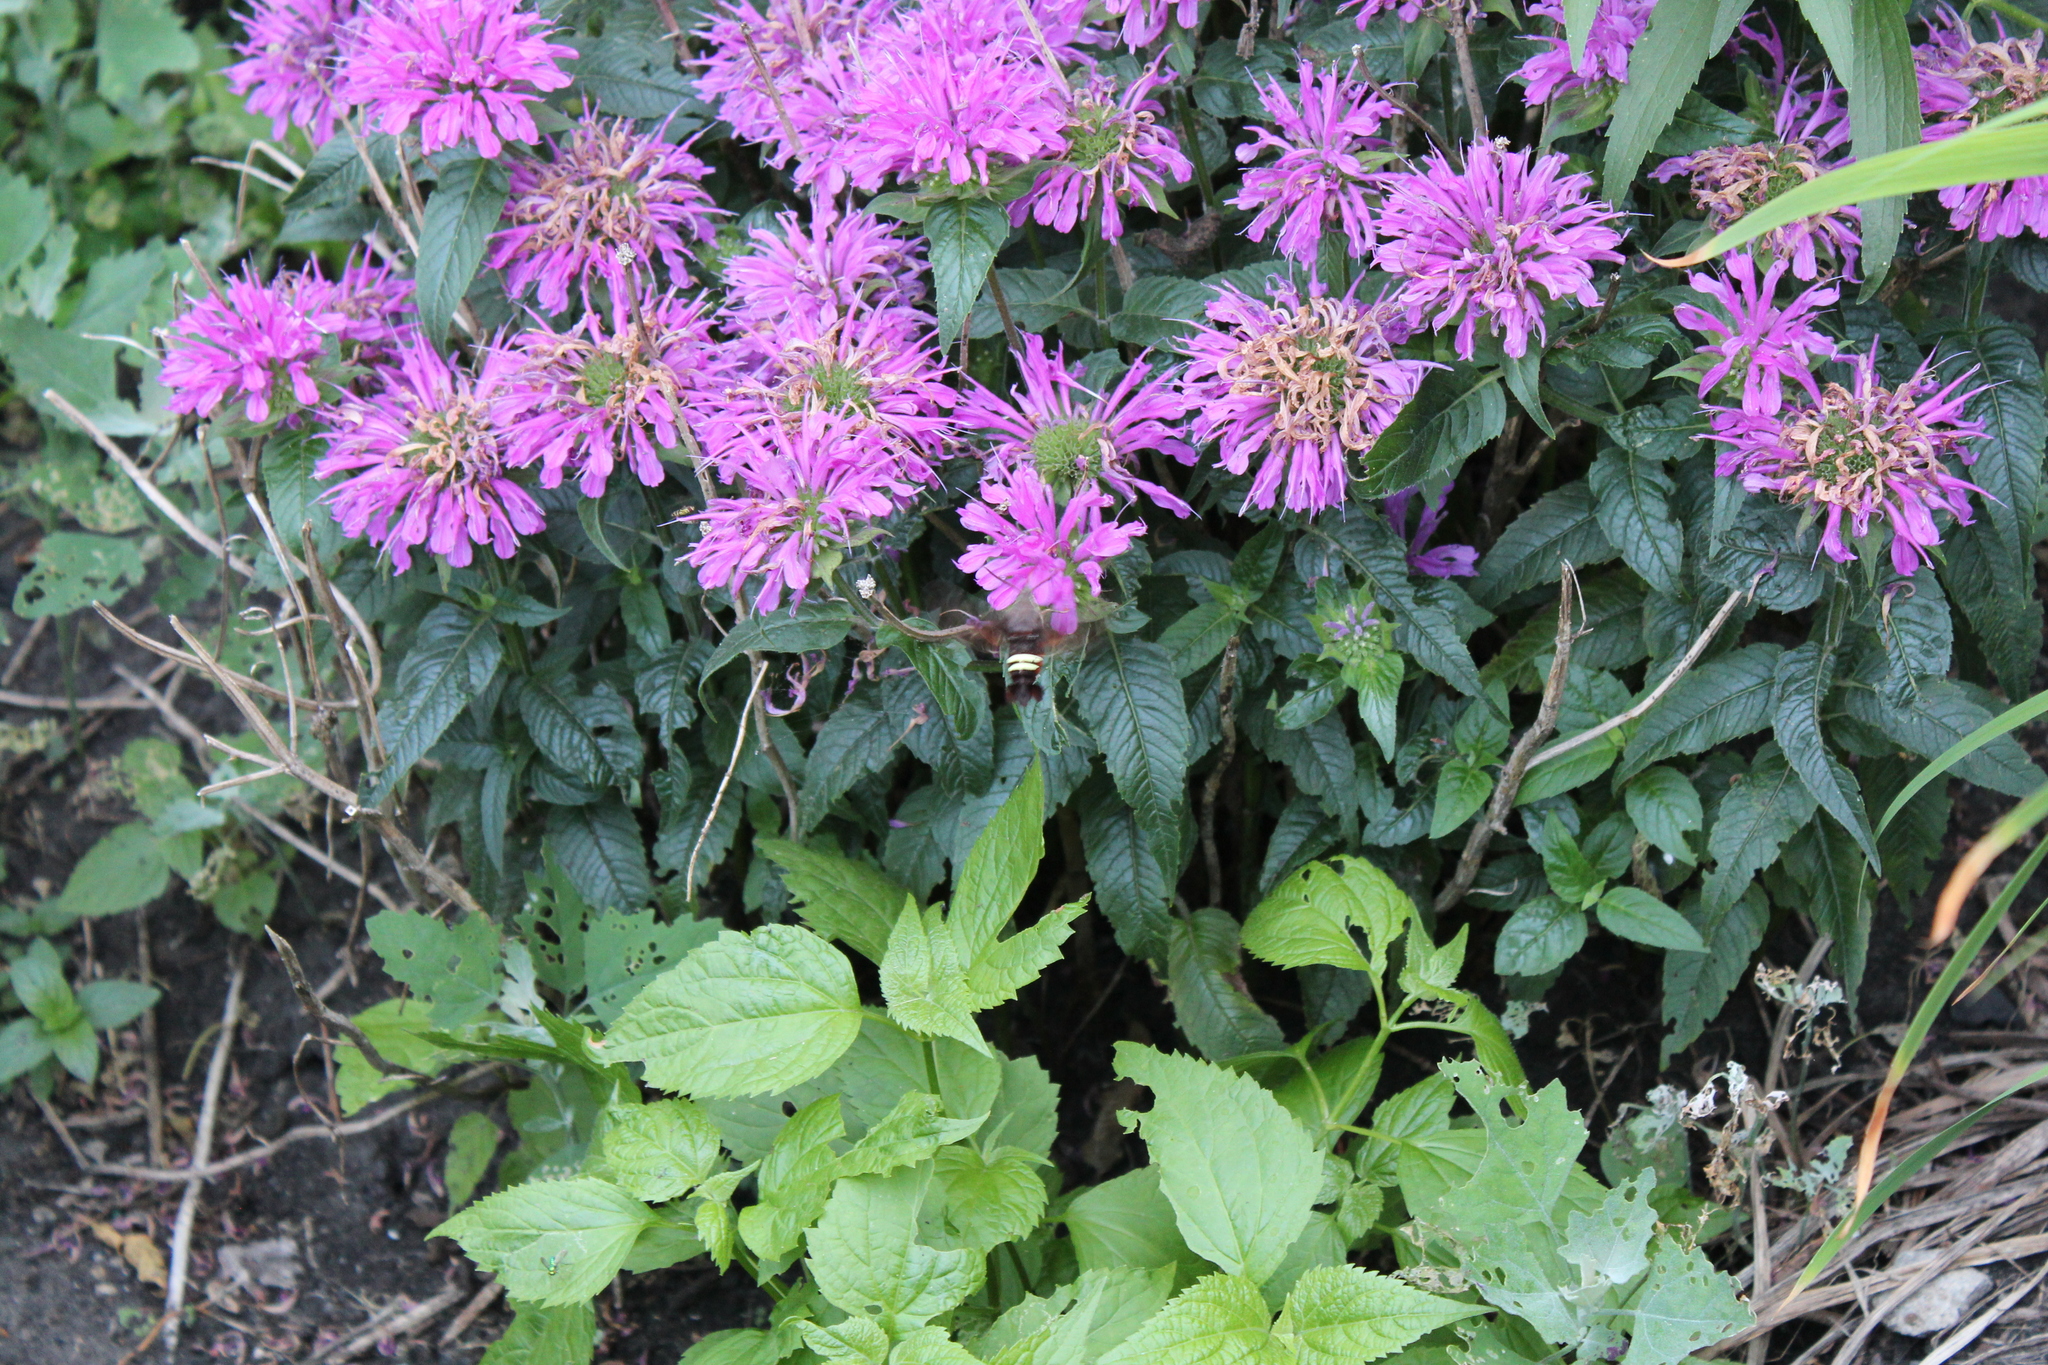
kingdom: Animalia
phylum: Arthropoda
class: Insecta
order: Lepidoptera
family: Sphingidae
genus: Amphion
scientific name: Amphion floridensis
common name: Nessus sphinx
